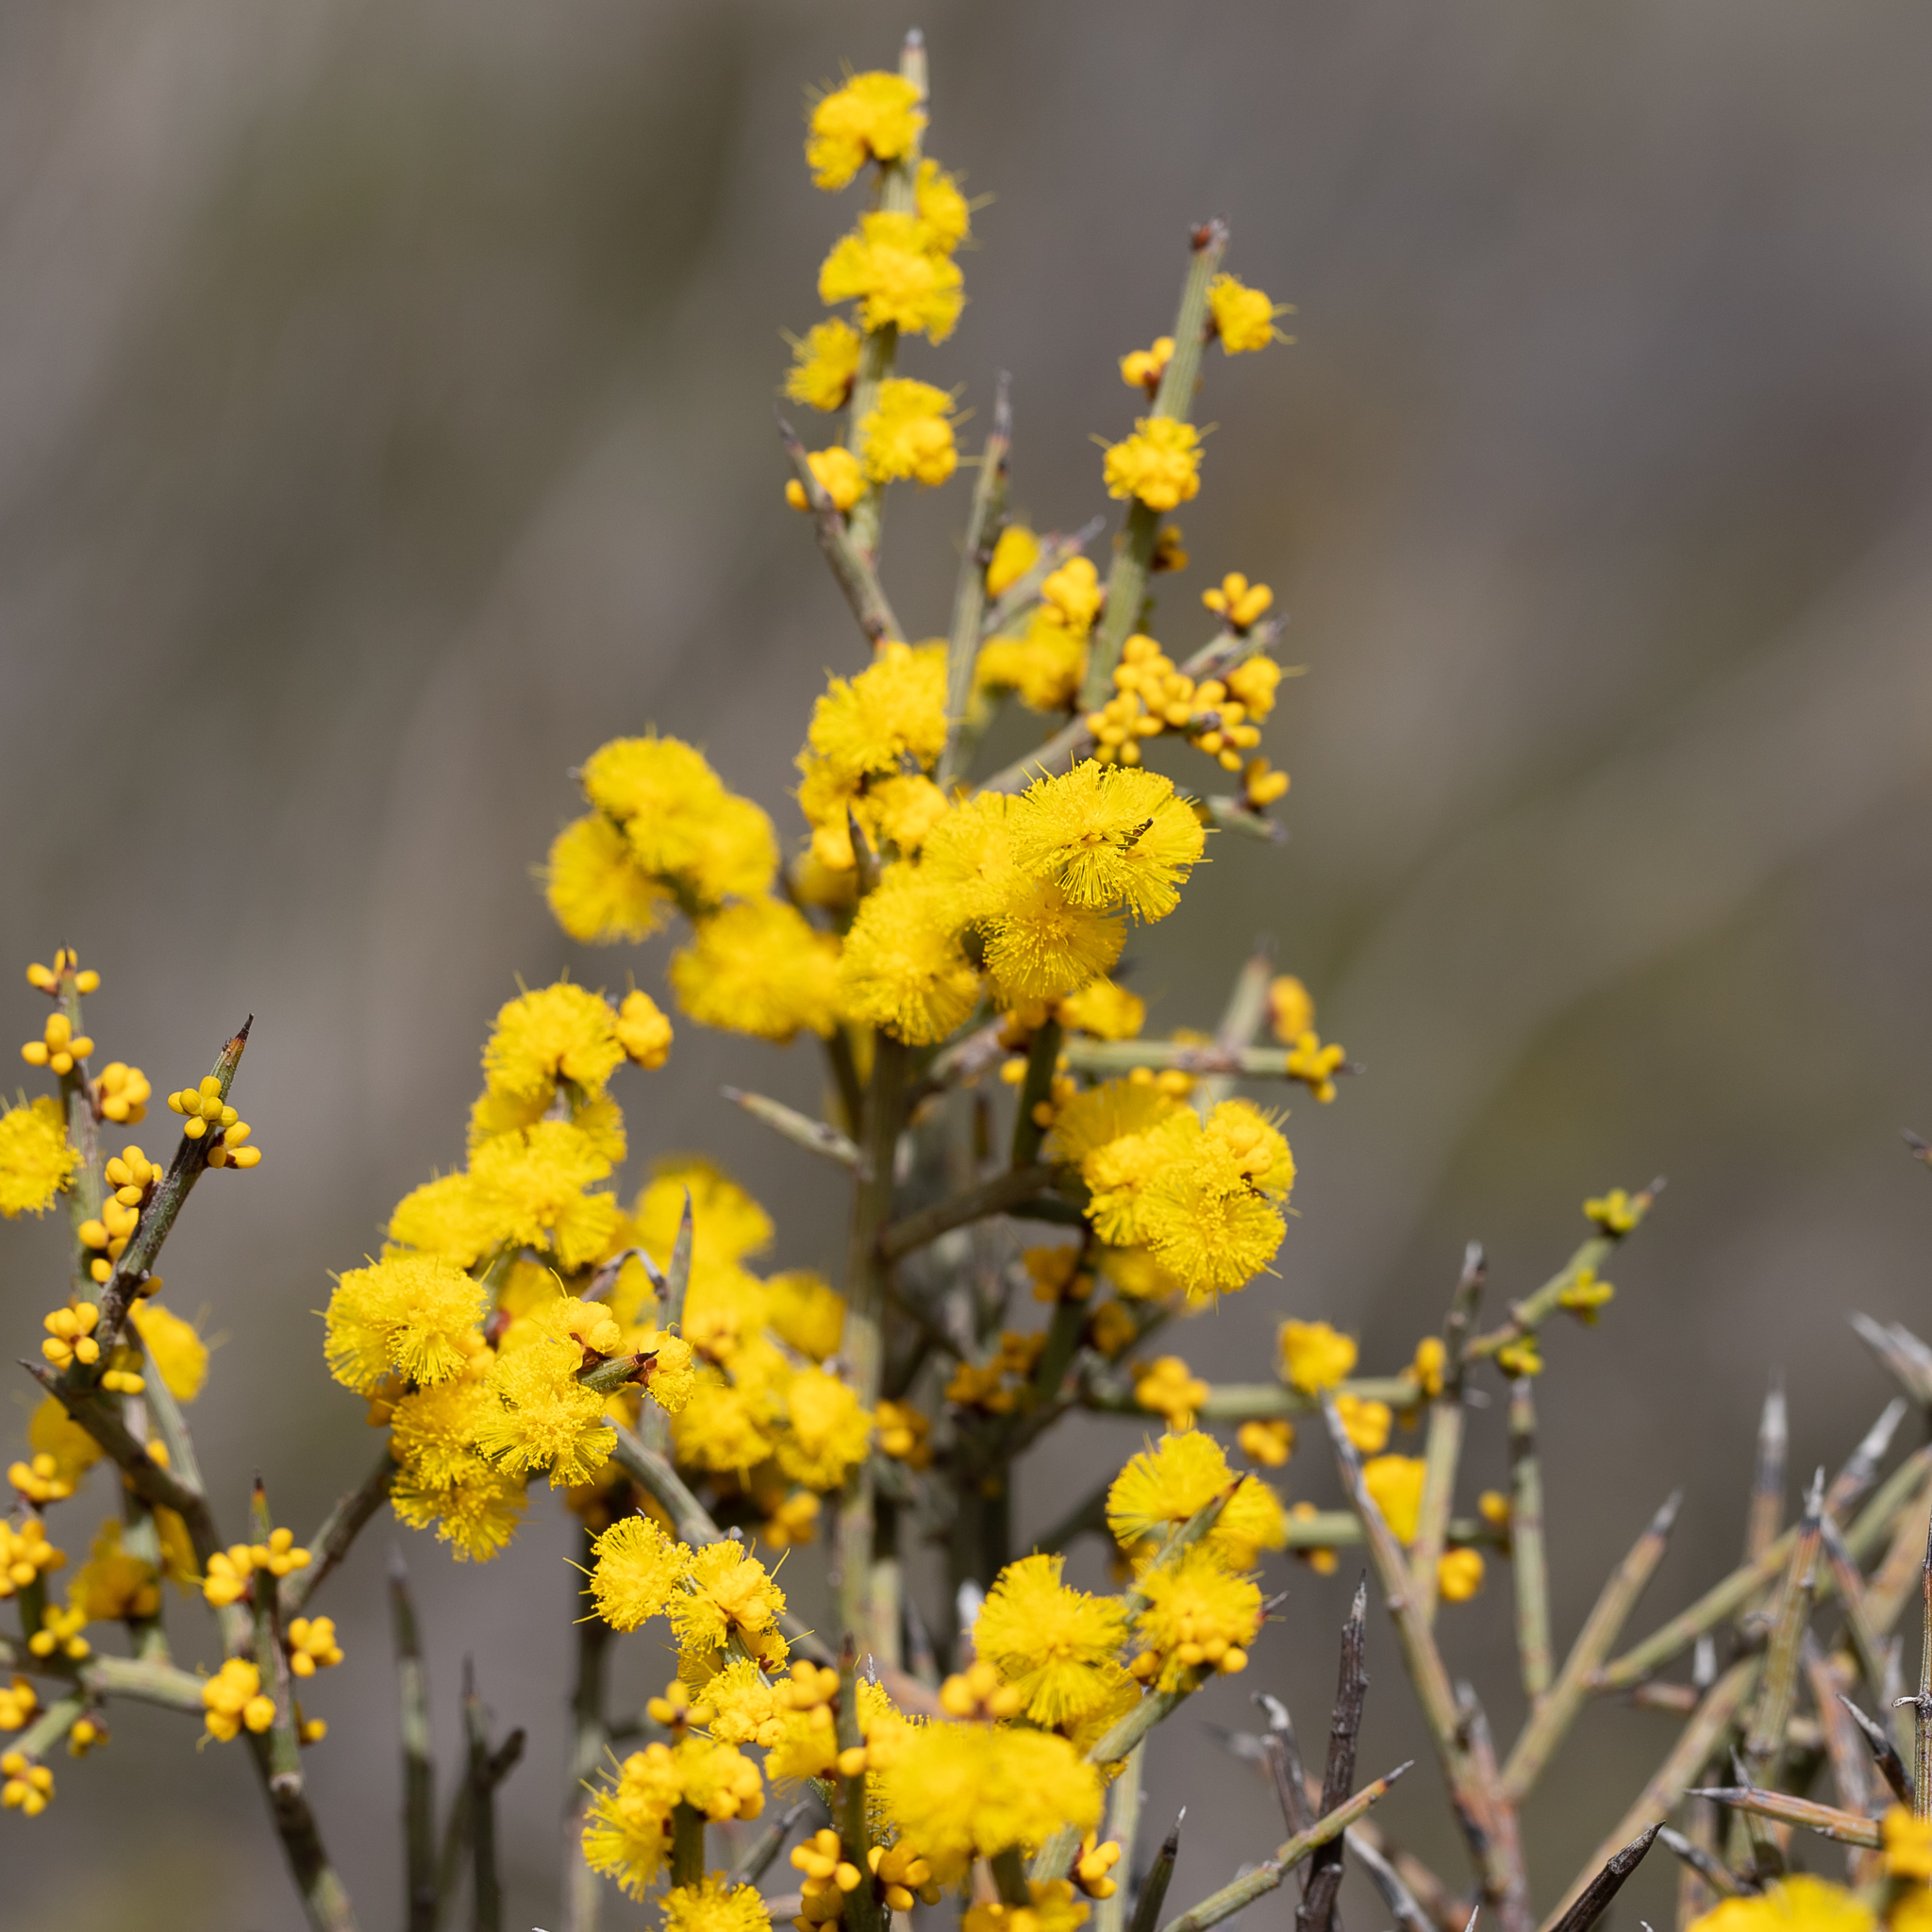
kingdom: Plantae
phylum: Tracheophyta
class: Magnoliopsida
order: Fabales
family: Fabaceae
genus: Acacia
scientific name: Acacia spinescens
